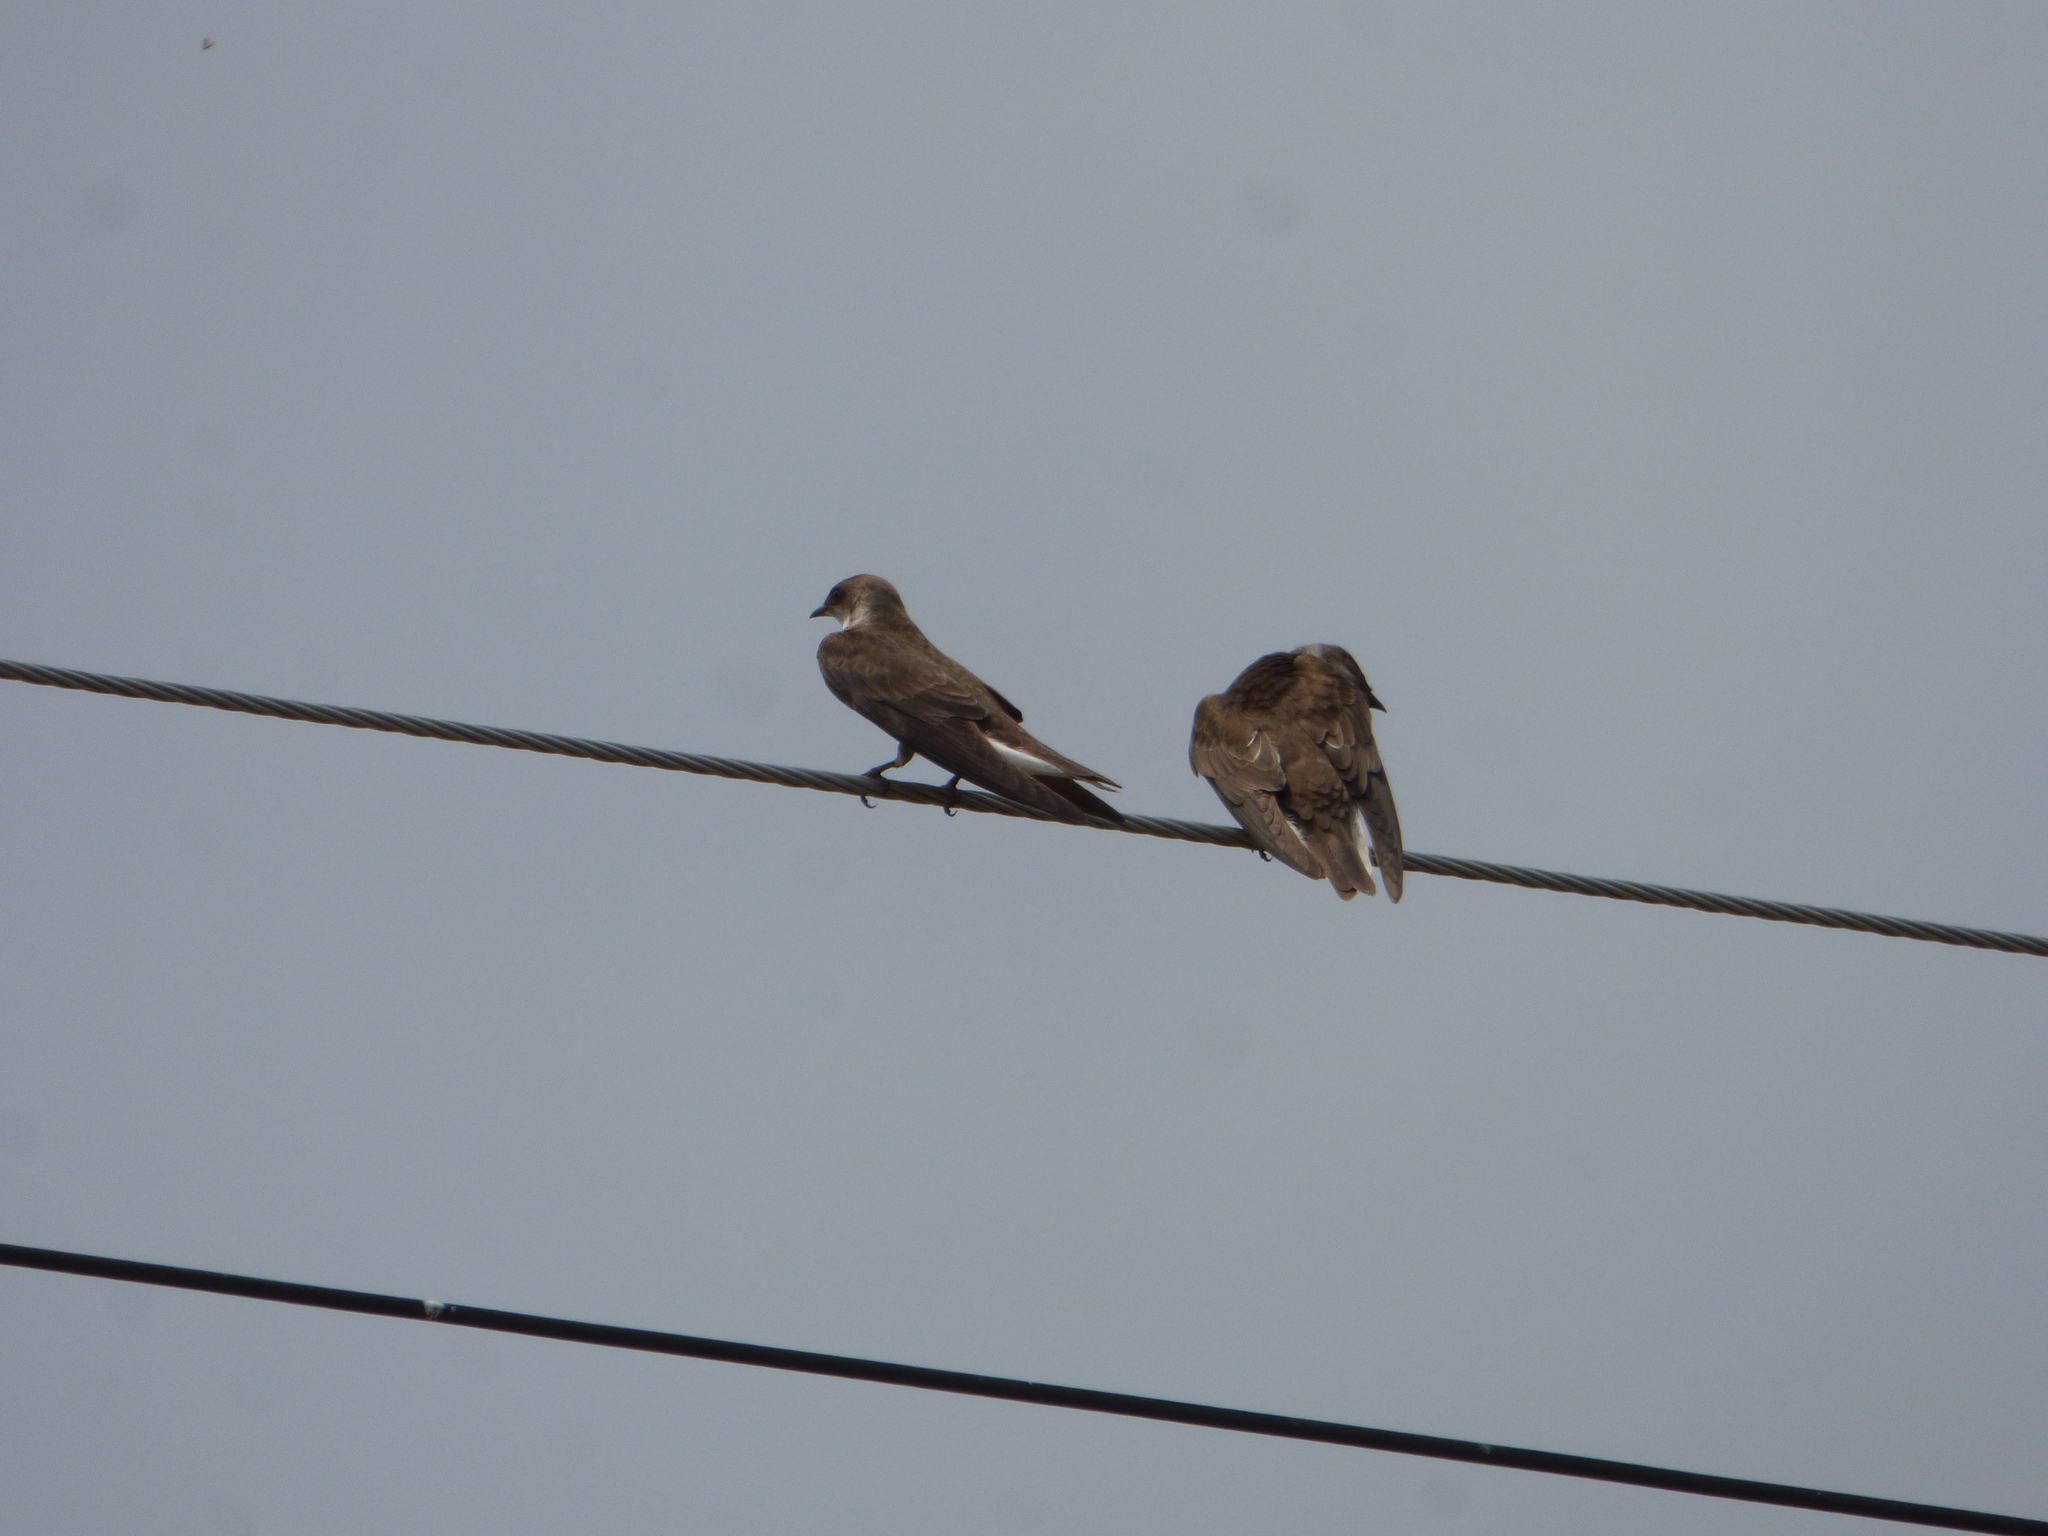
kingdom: Animalia
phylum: Chordata
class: Aves
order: Passeriformes
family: Hirundinidae
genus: Progne
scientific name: Progne tapera
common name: Brown-chested martin
